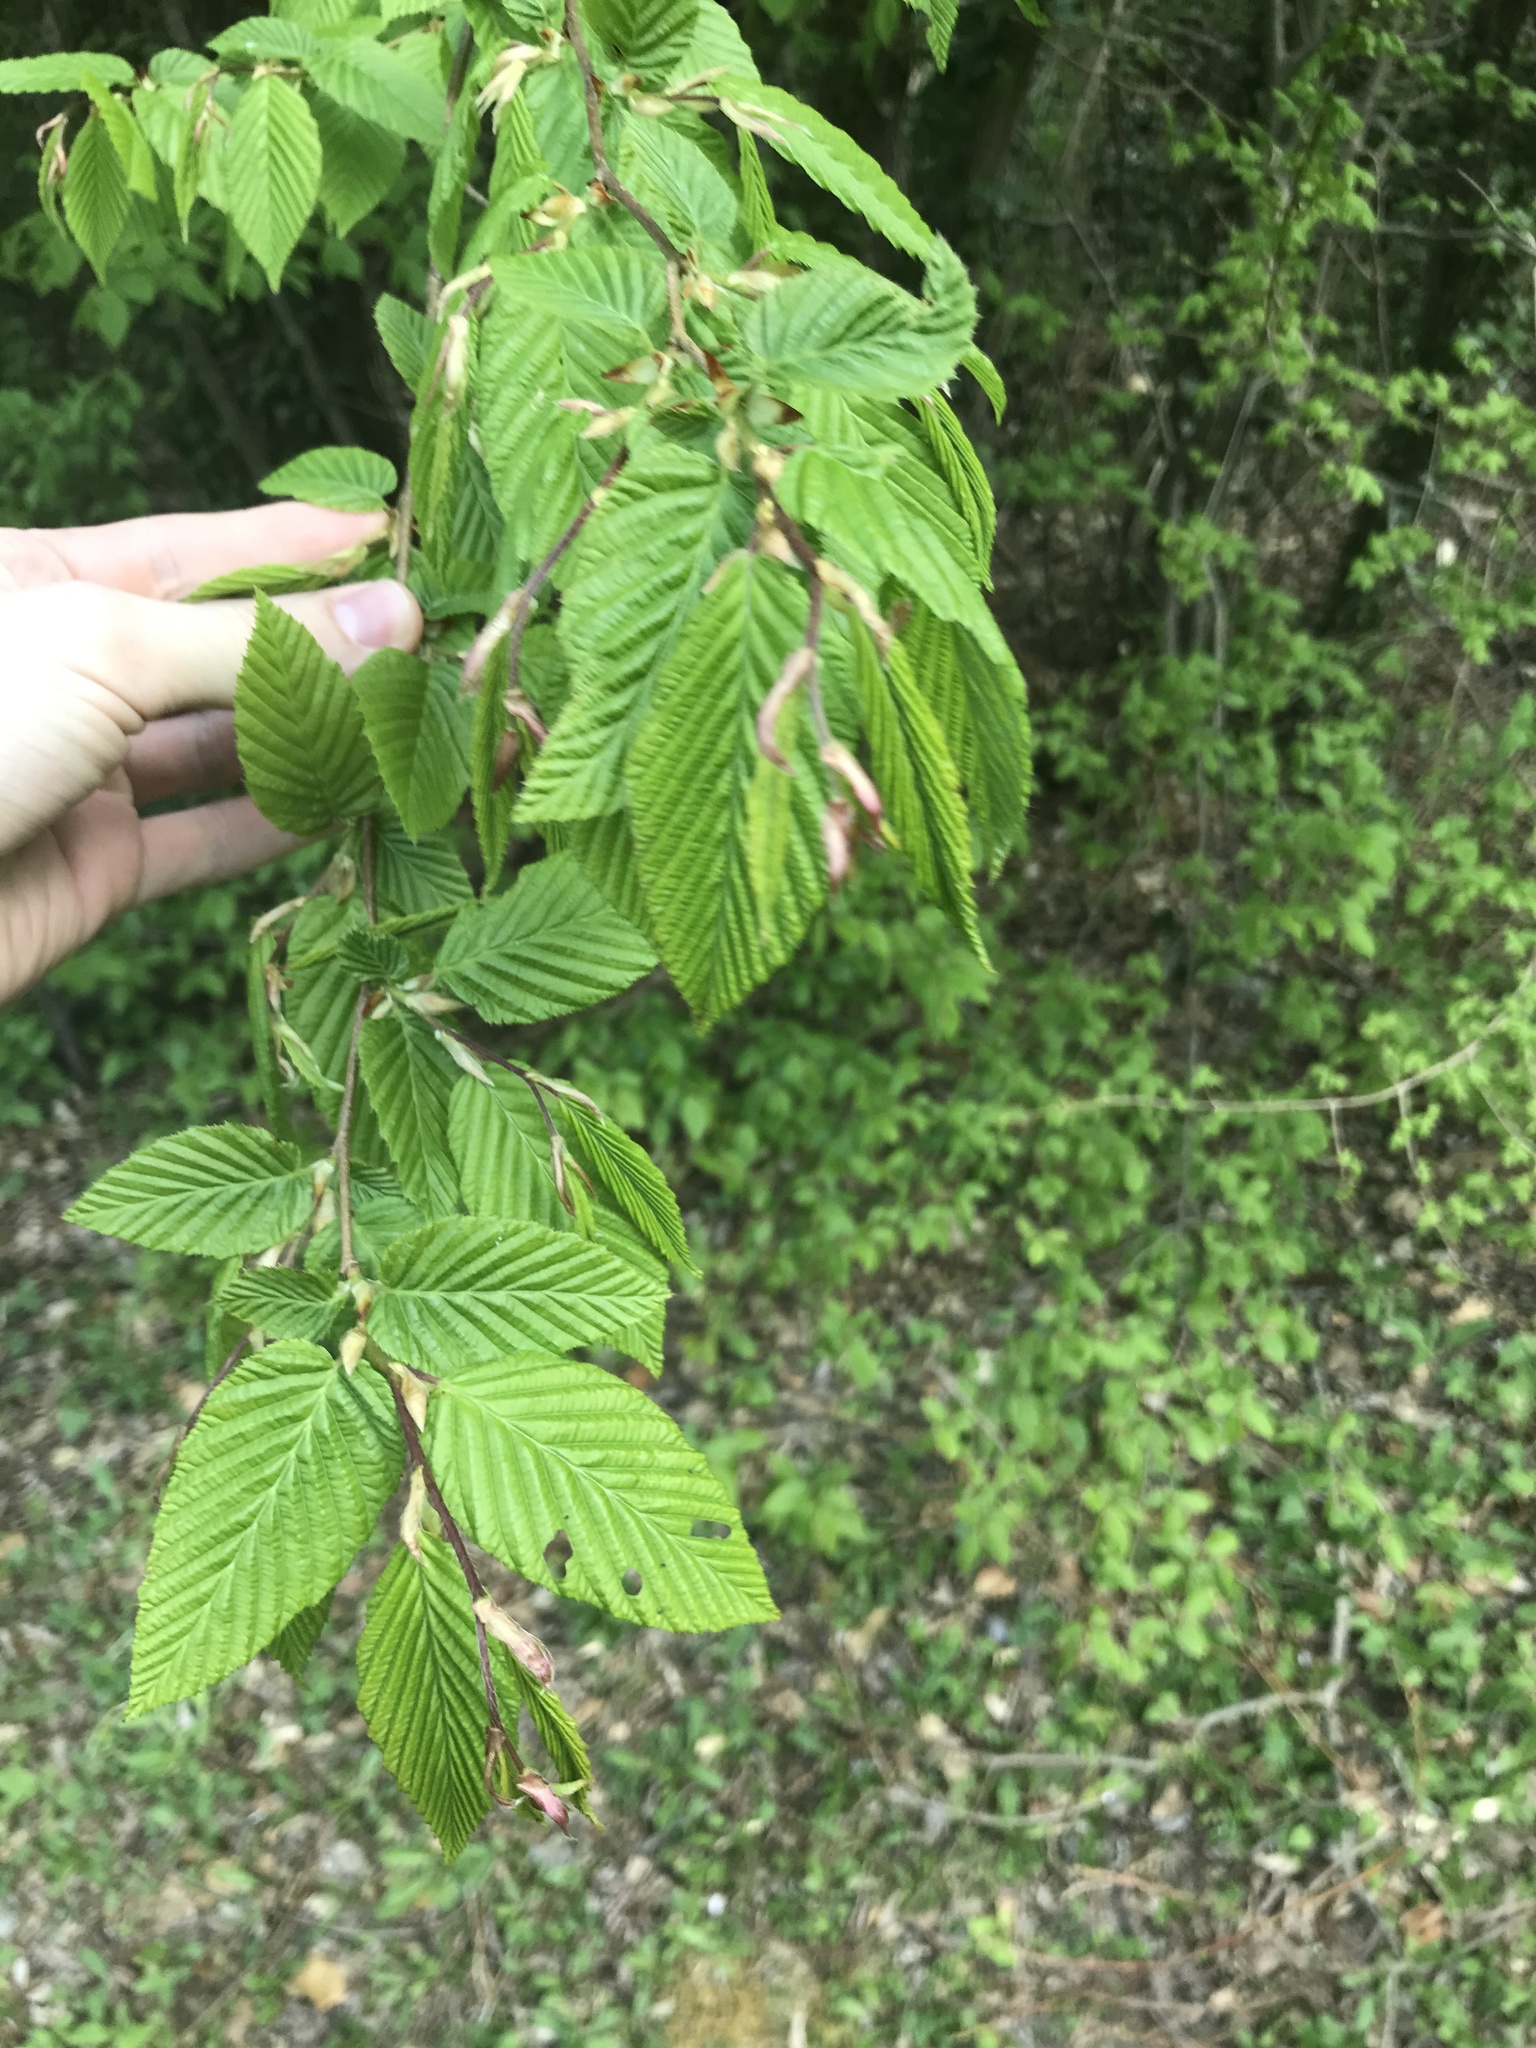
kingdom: Plantae
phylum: Tracheophyta
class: Magnoliopsida
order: Fagales
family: Betulaceae
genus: Carpinus
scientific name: Carpinus betulus
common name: Hornbeam
